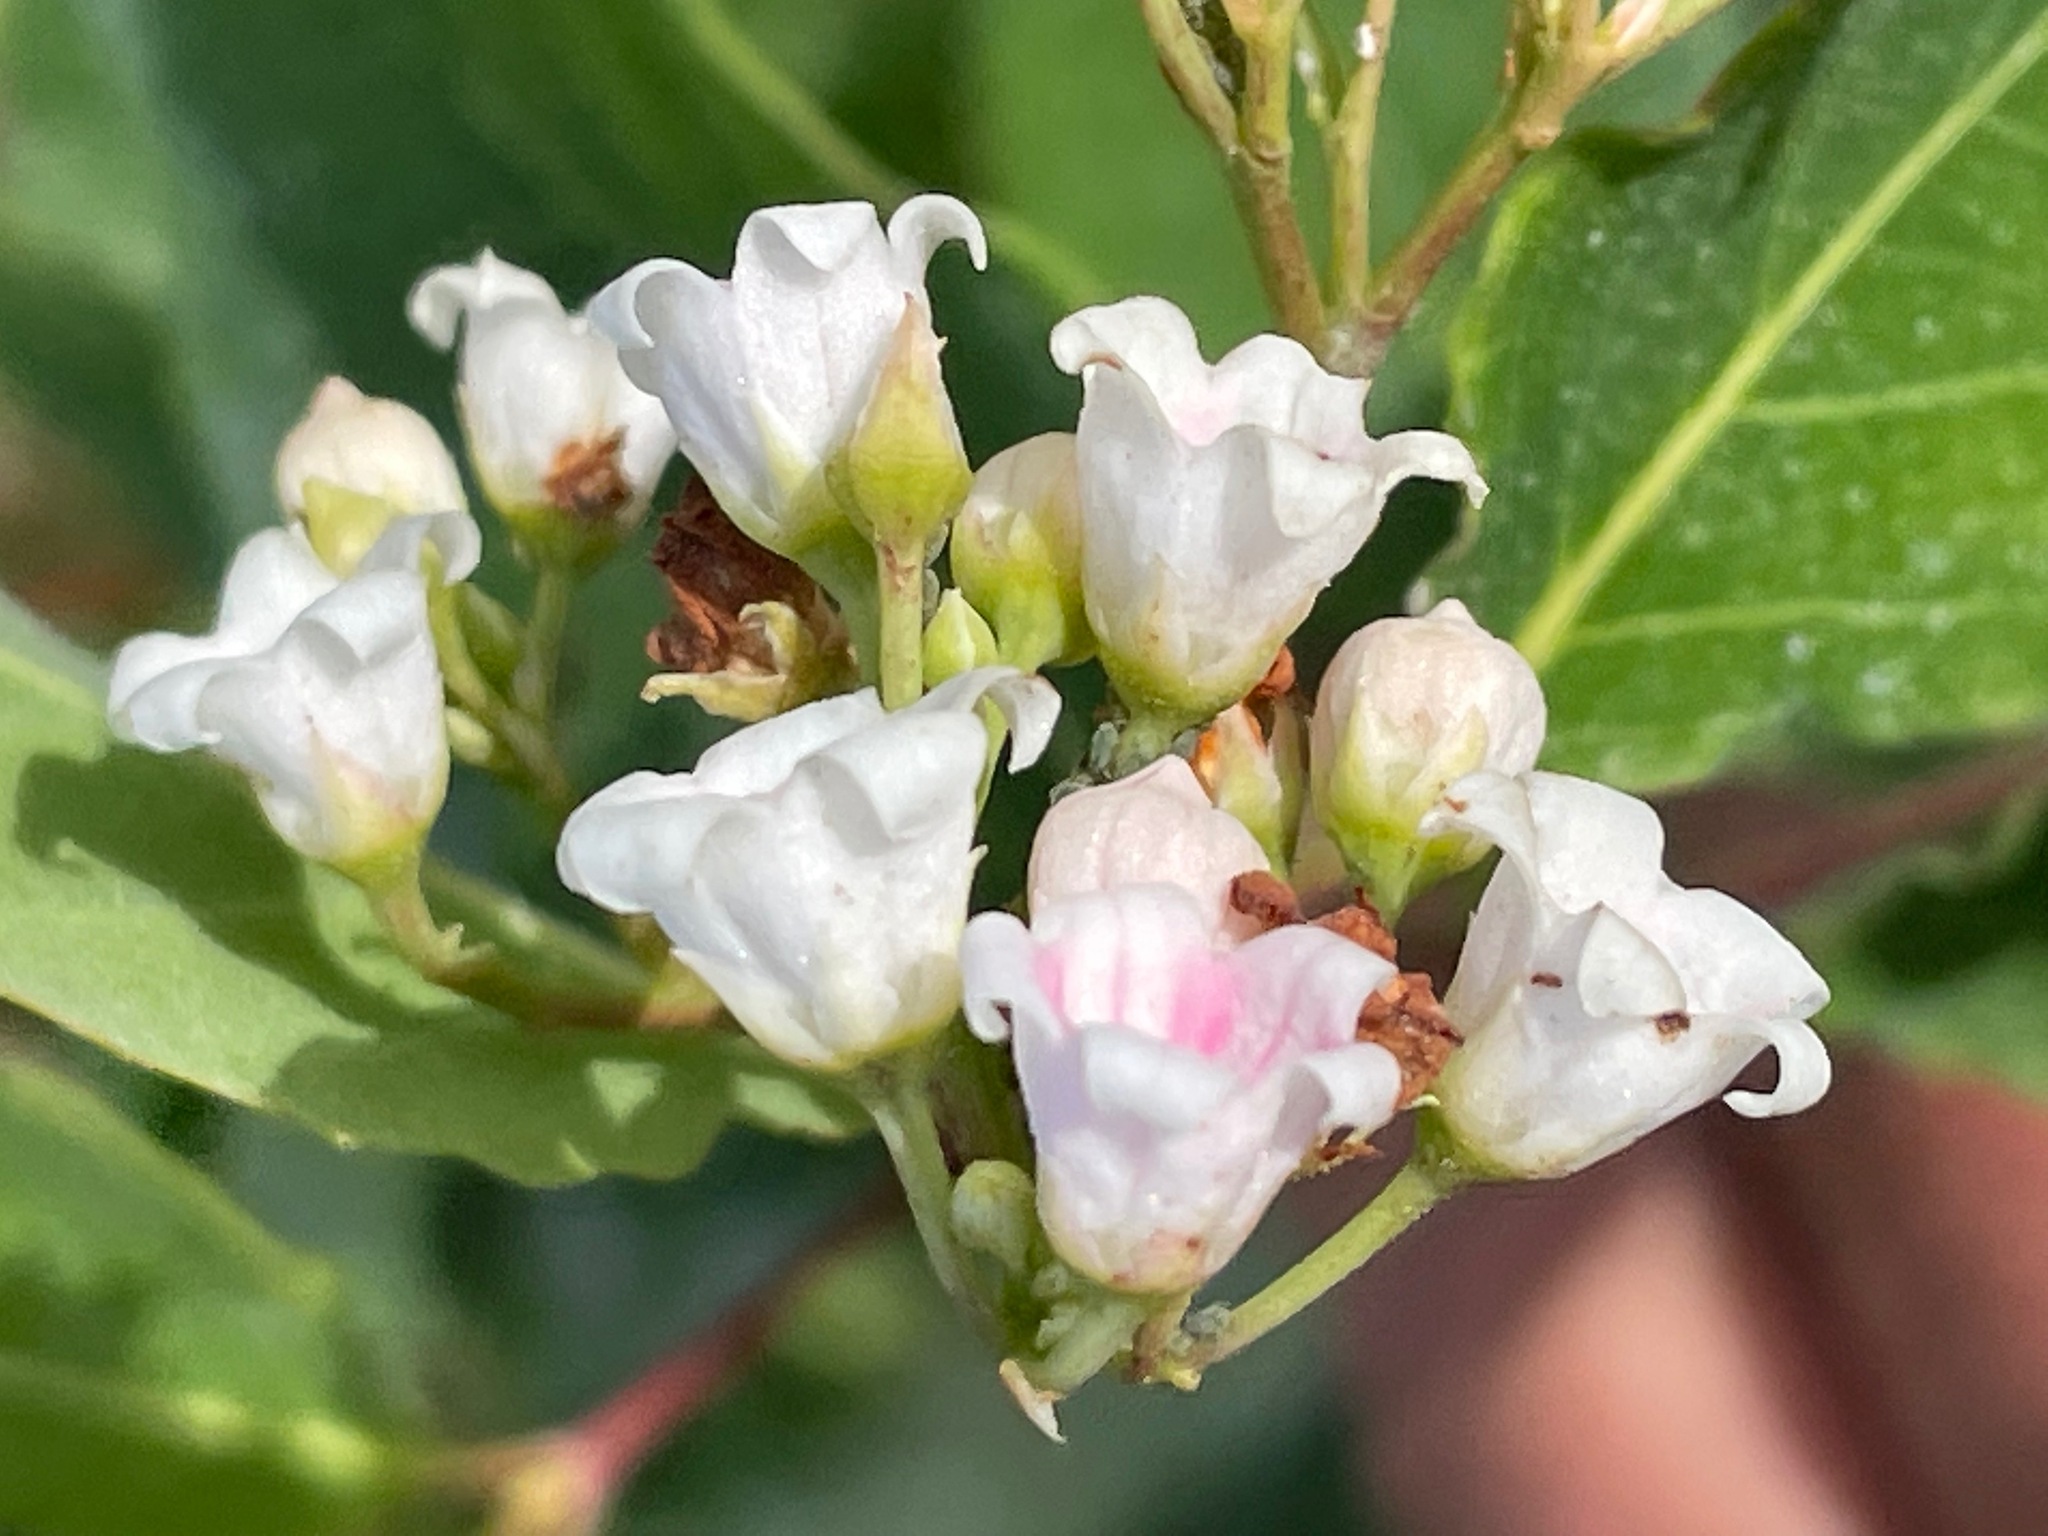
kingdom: Plantae
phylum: Tracheophyta
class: Magnoliopsida
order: Gentianales
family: Apocynaceae
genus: Apocynum
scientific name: Apocynum androsaemifolium
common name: Spreading dogbane
